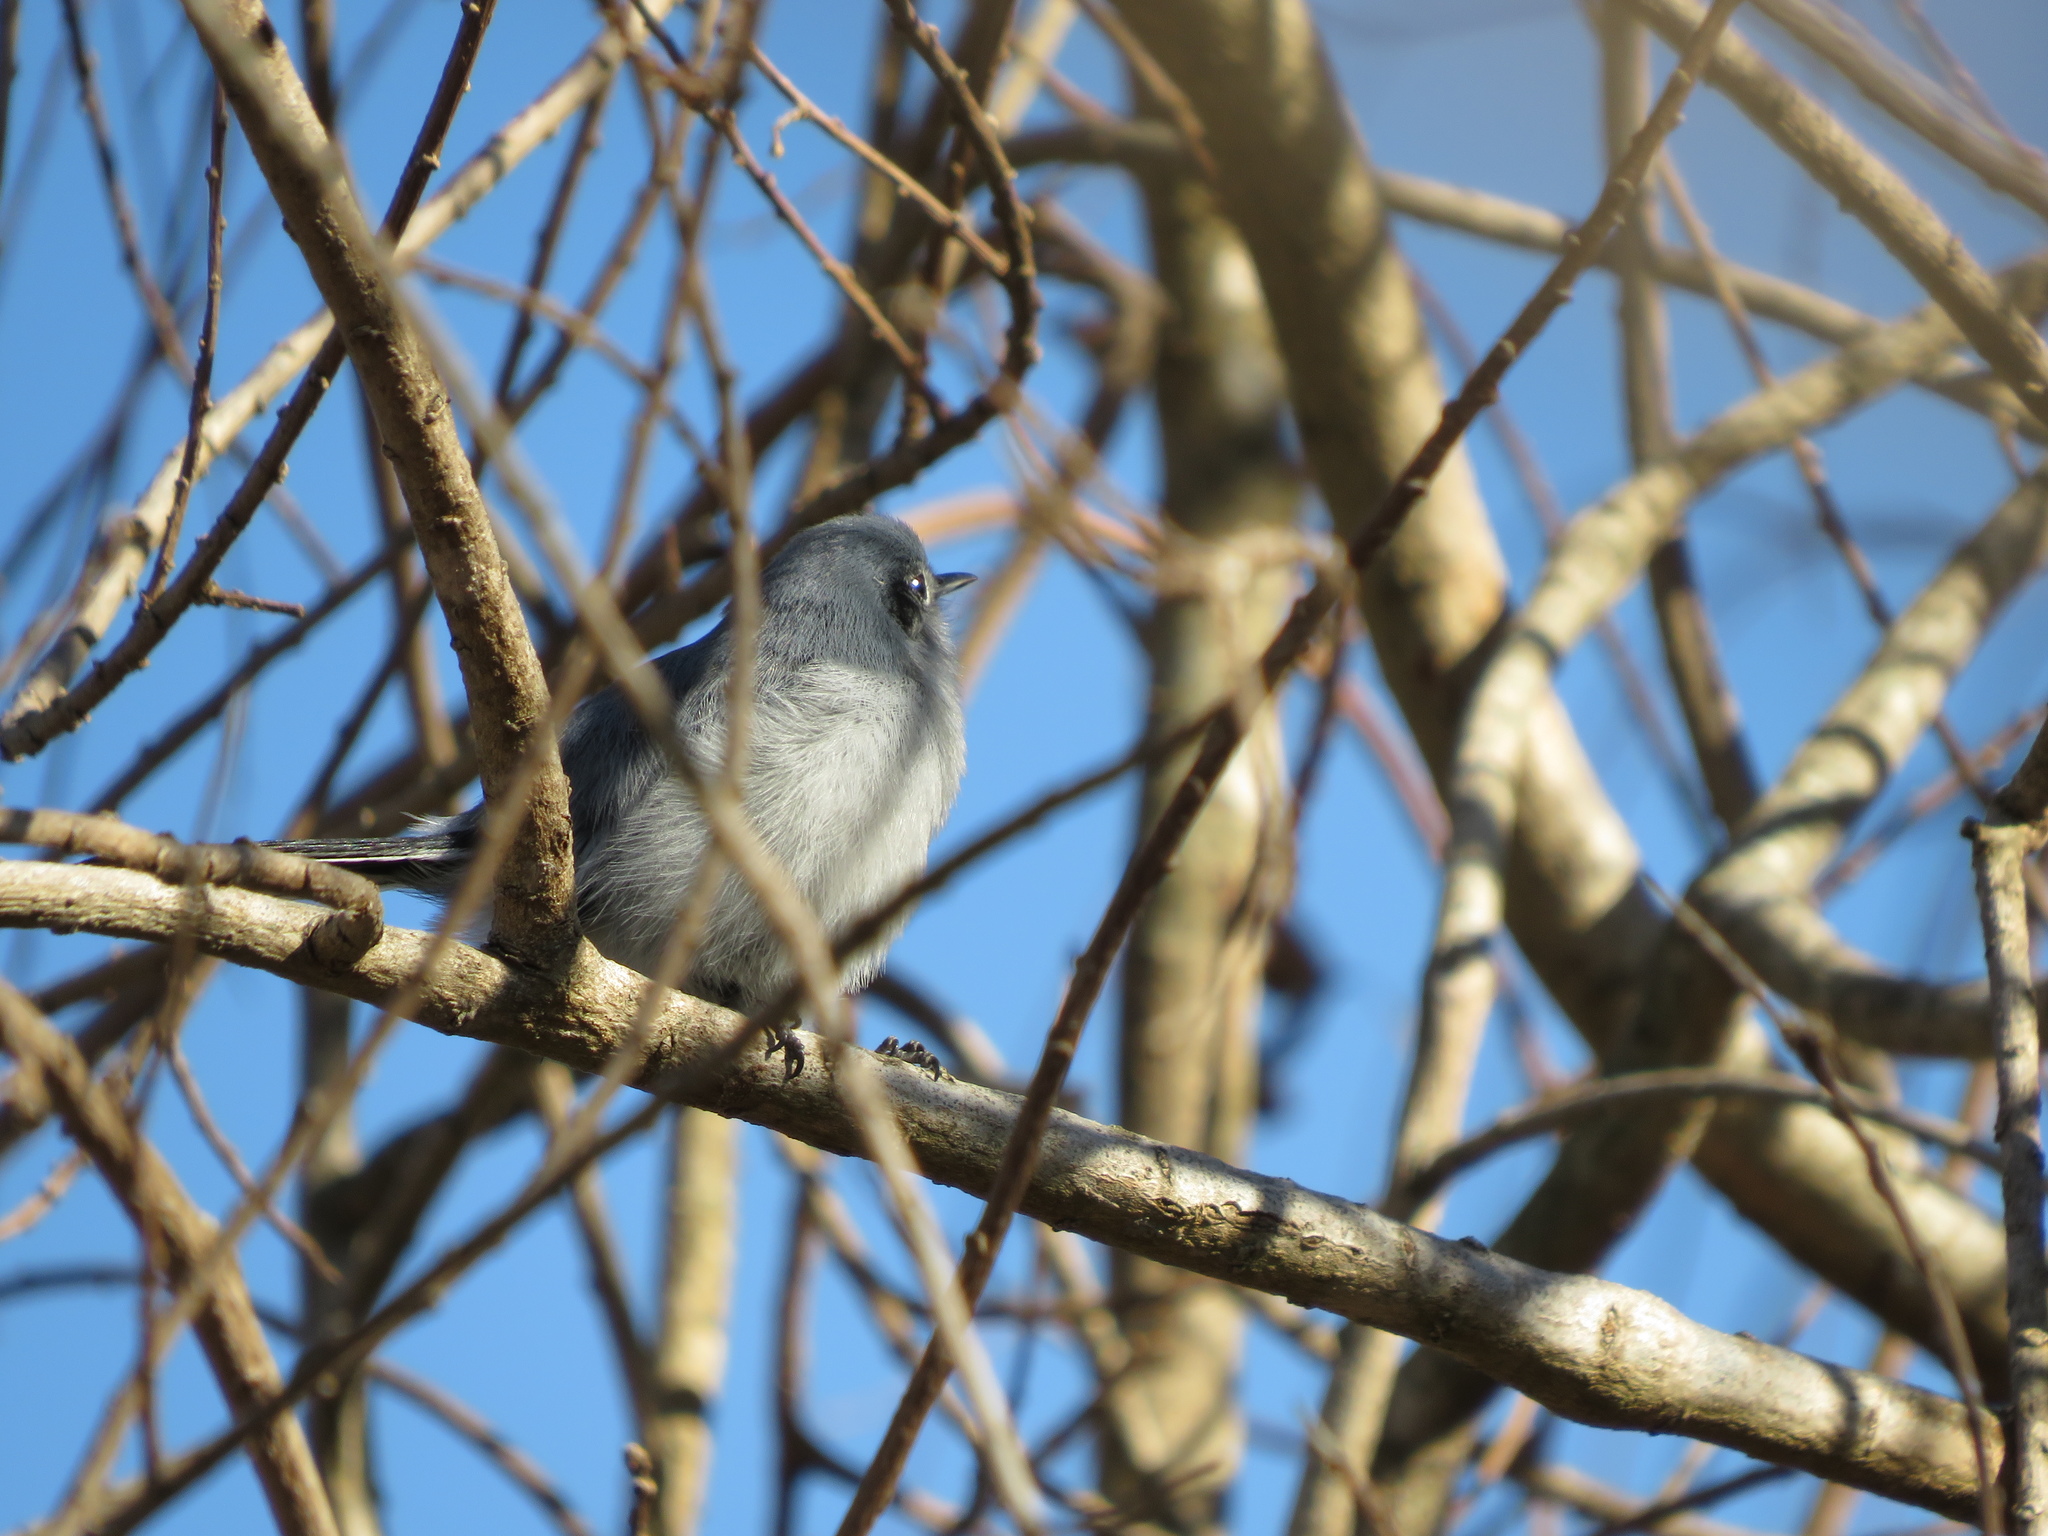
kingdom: Animalia
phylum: Chordata
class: Aves
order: Passeriformes
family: Polioptilidae
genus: Polioptila
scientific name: Polioptila dumicola
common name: Masked gnatcatcher
